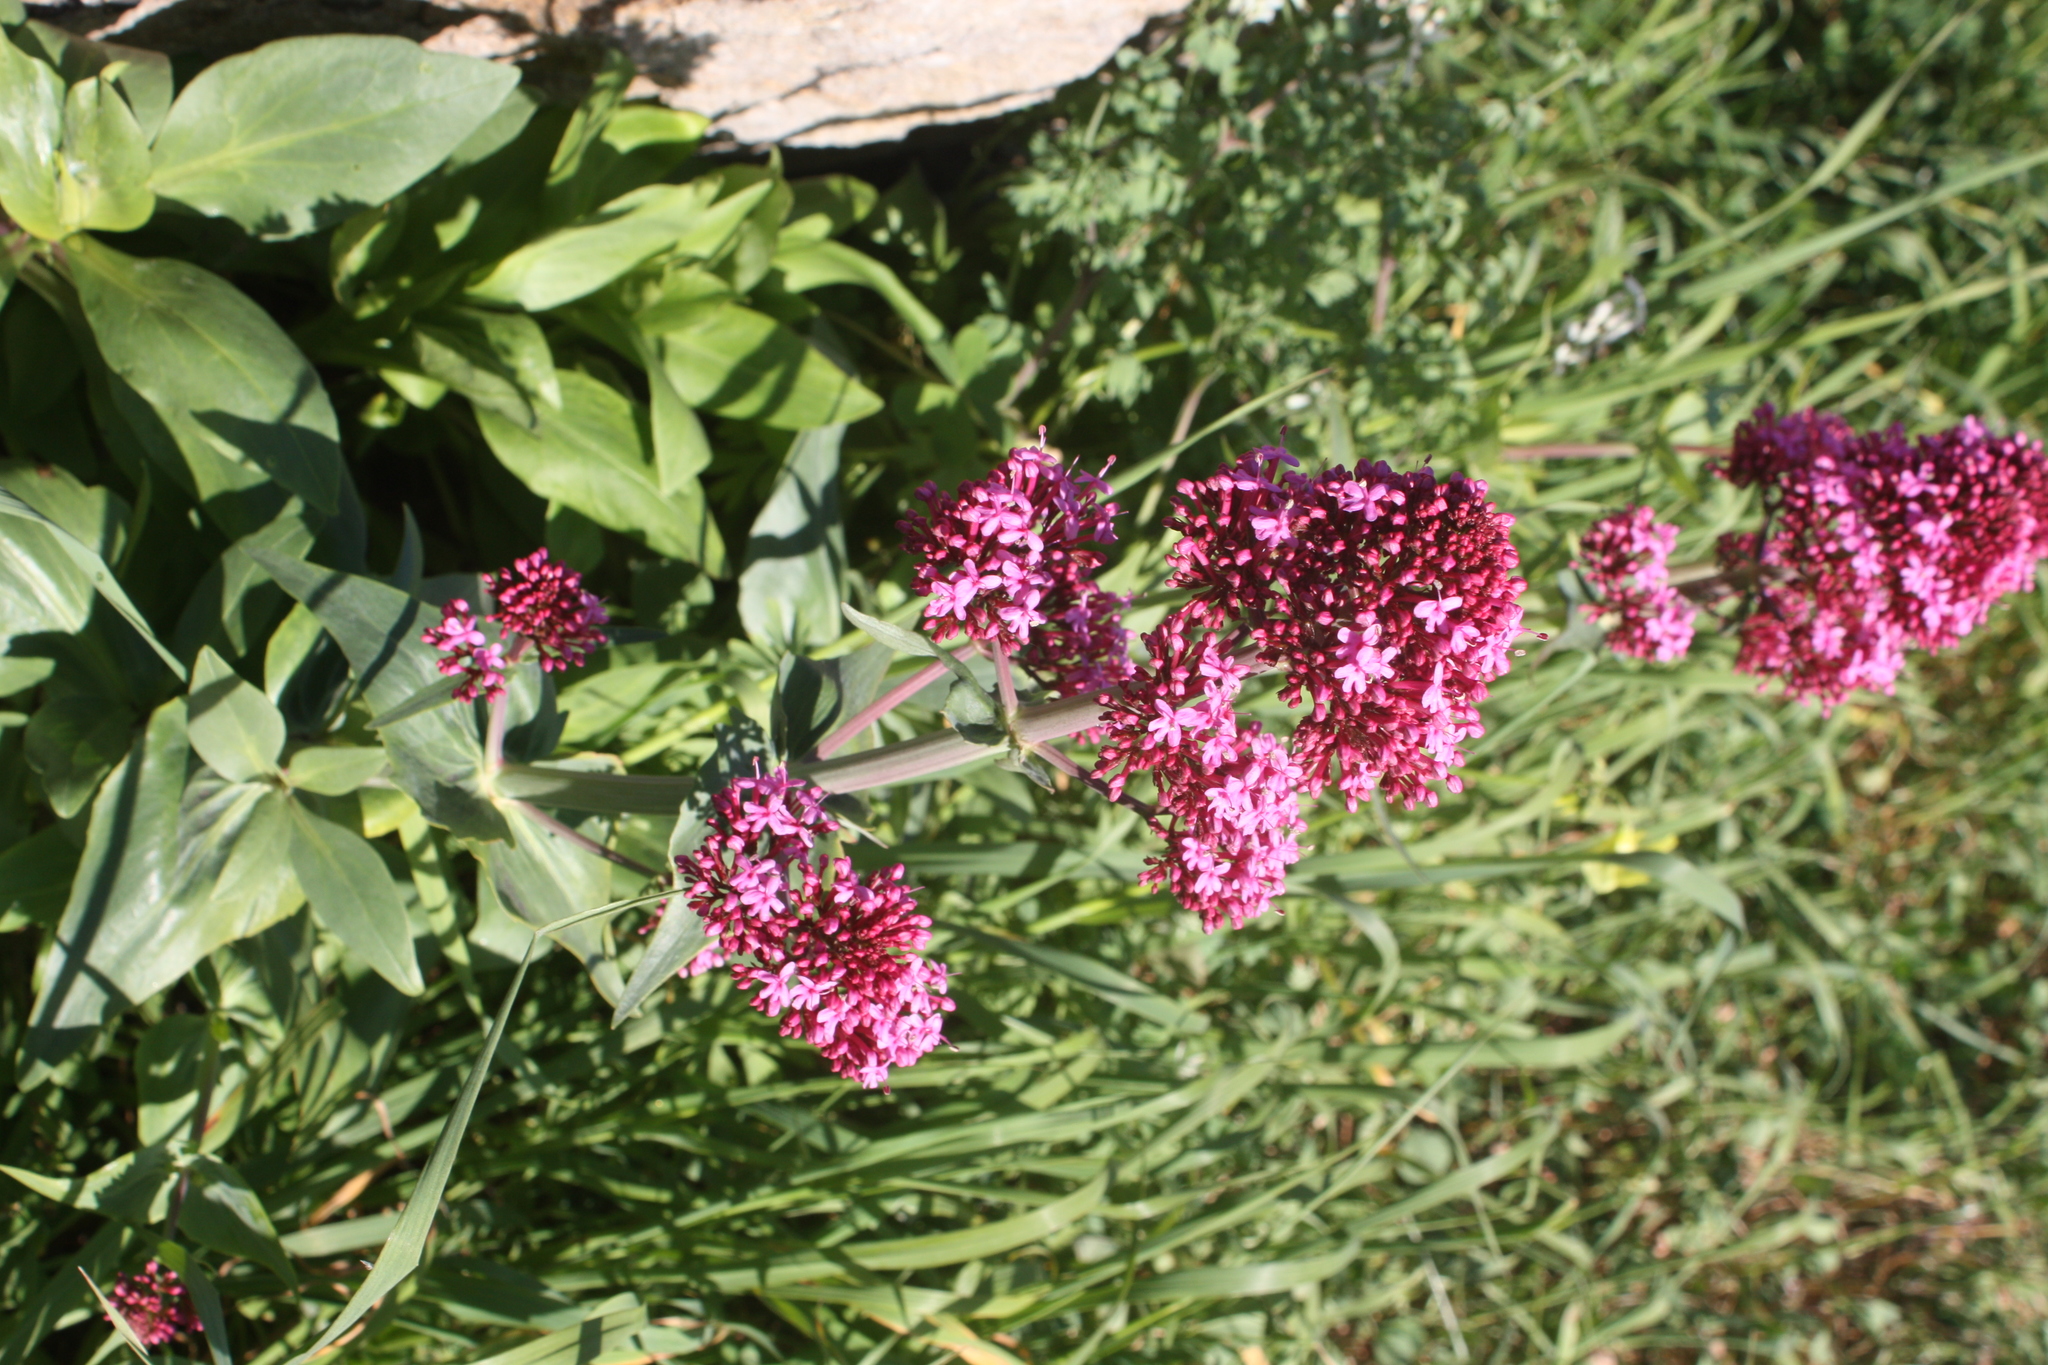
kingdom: Plantae
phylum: Tracheophyta
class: Magnoliopsida
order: Dipsacales
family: Caprifoliaceae
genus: Centranthus
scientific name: Centranthus ruber
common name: Red valerian
